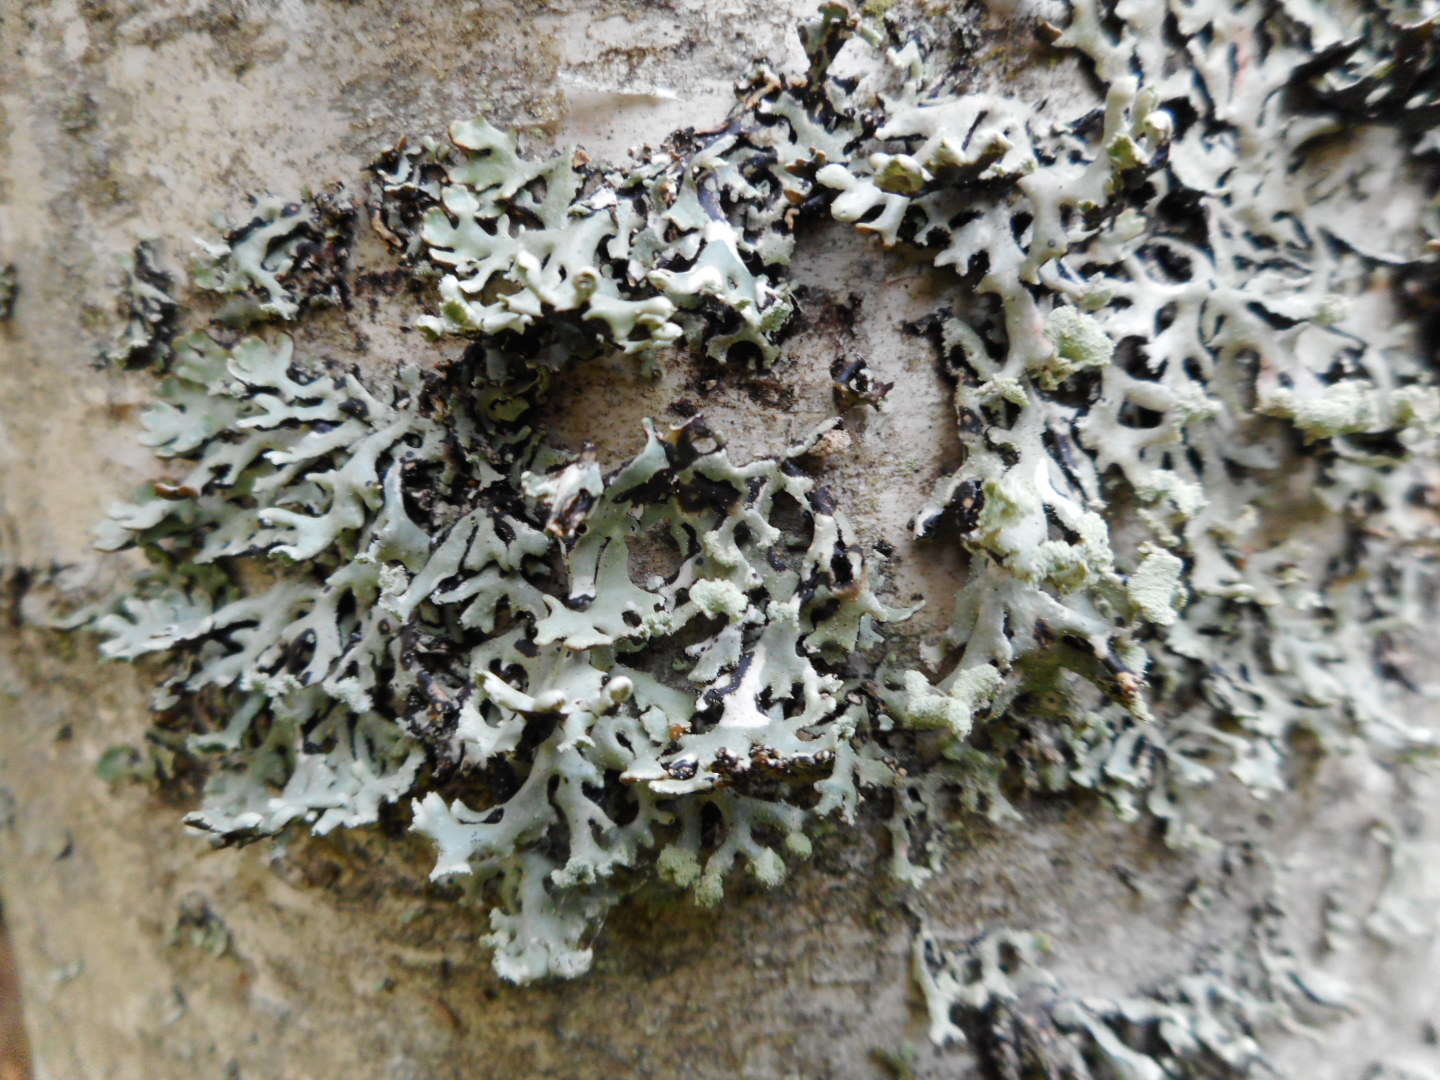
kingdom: Fungi
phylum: Ascomycota
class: Lecanoromycetes
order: Lecanorales
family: Parmeliaceae
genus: Hypogymnia
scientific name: Hypogymnia physodes
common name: Dark crottle
